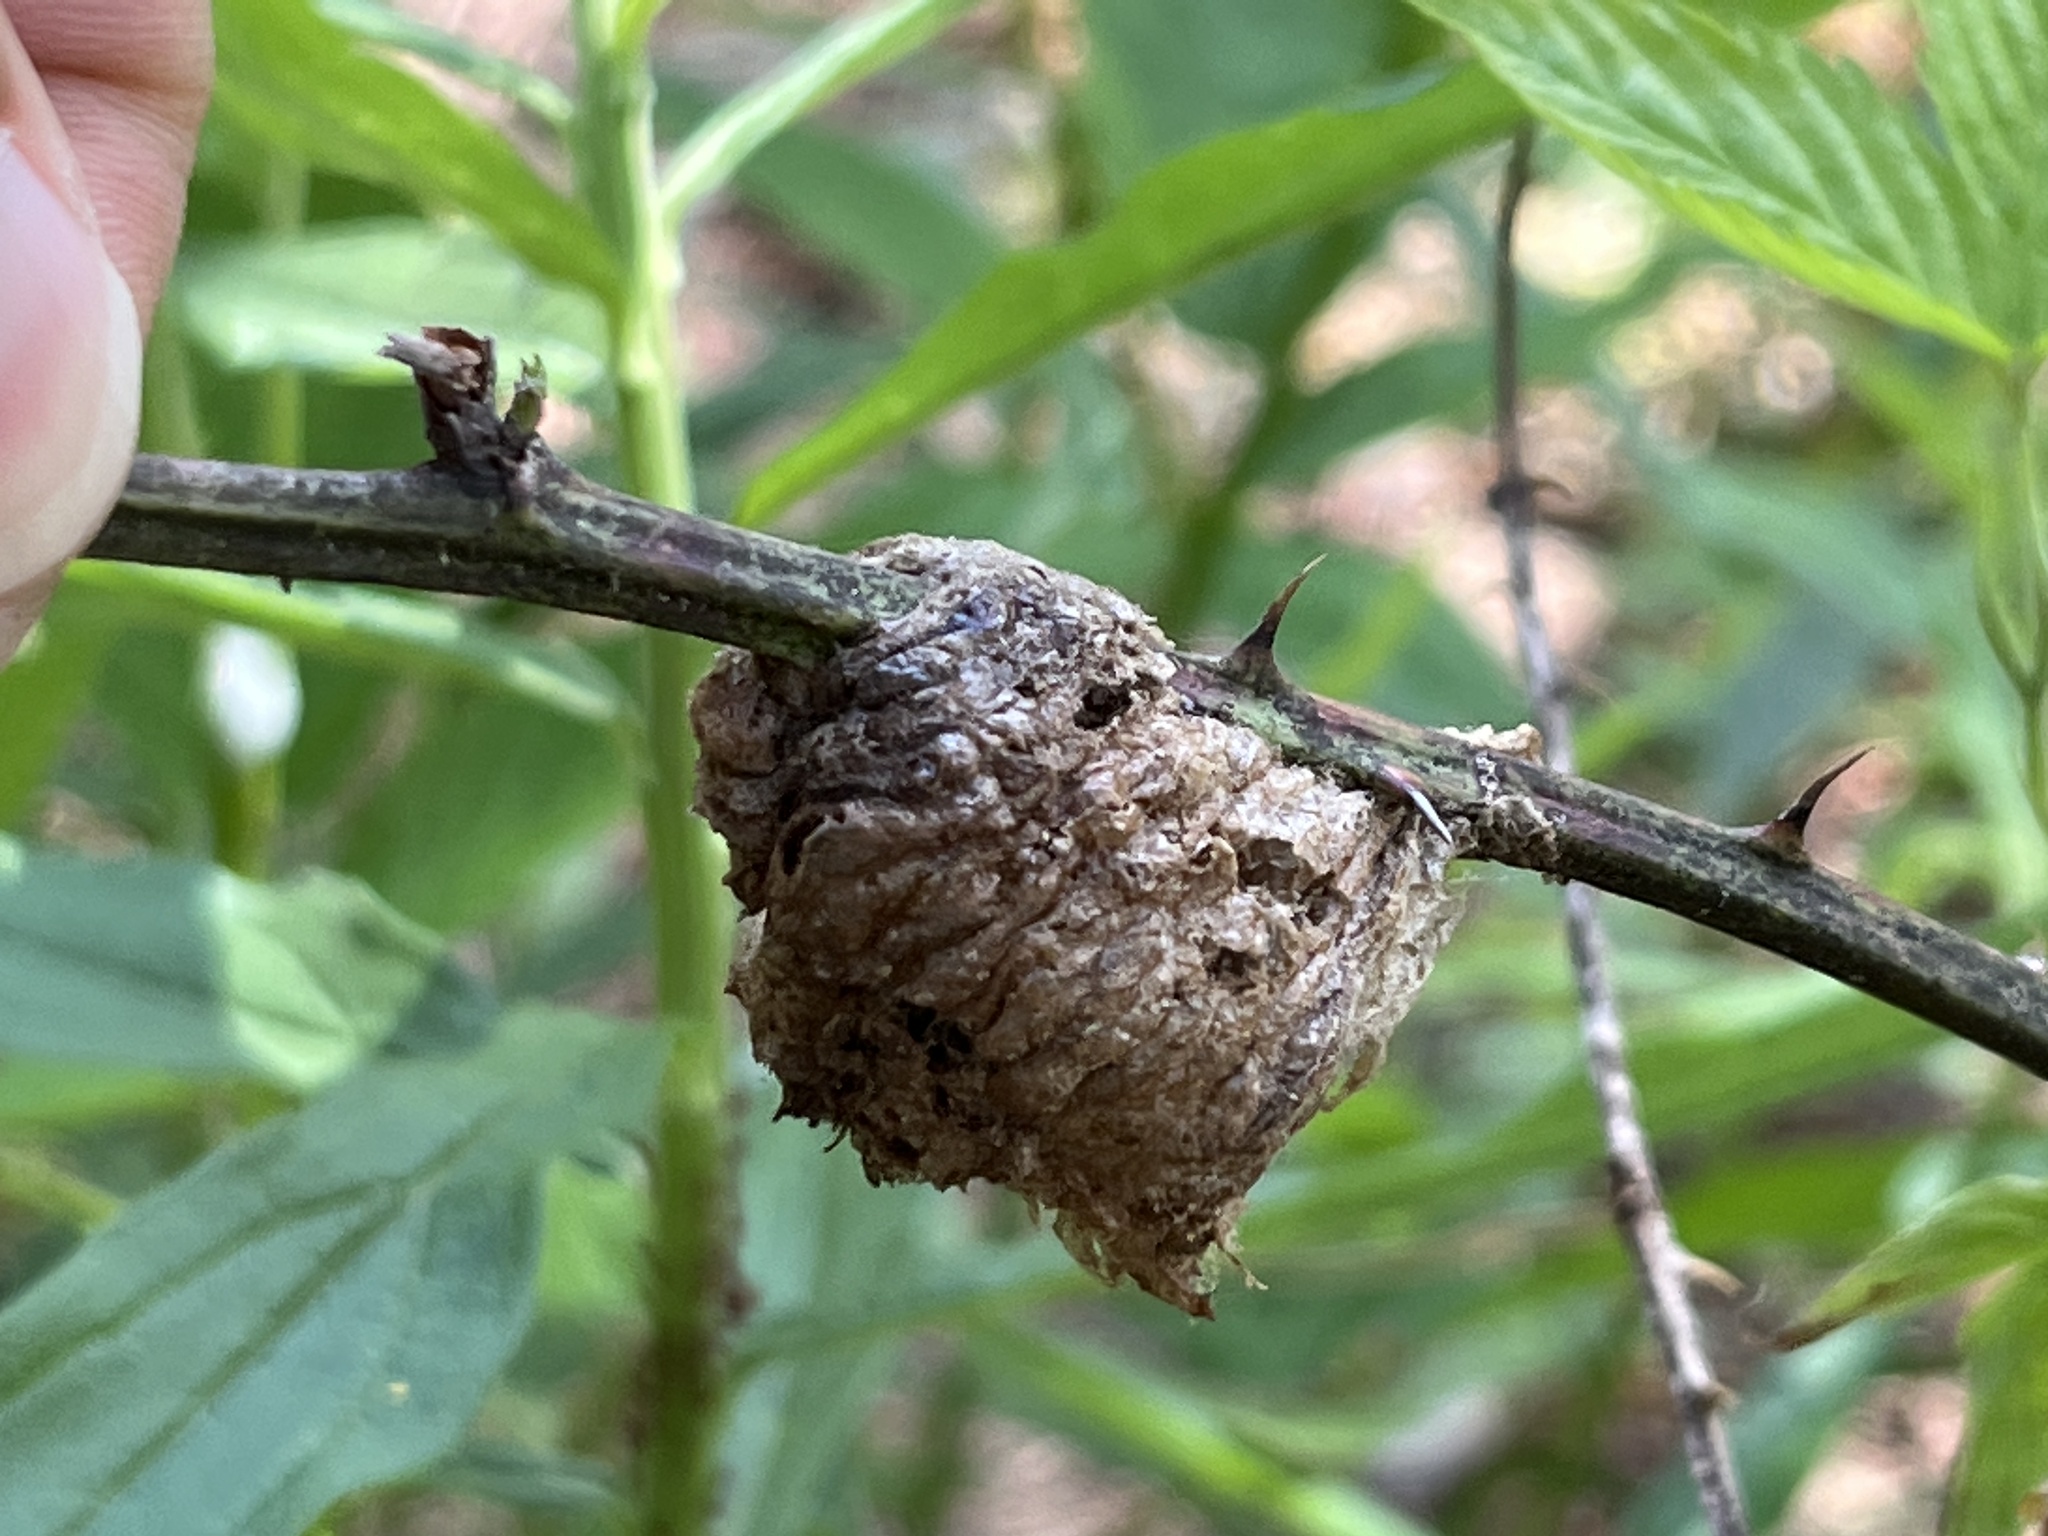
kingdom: Animalia
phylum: Arthropoda
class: Insecta
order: Mantodea
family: Mantidae
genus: Tenodera
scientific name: Tenodera sinensis
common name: Chinese mantis
